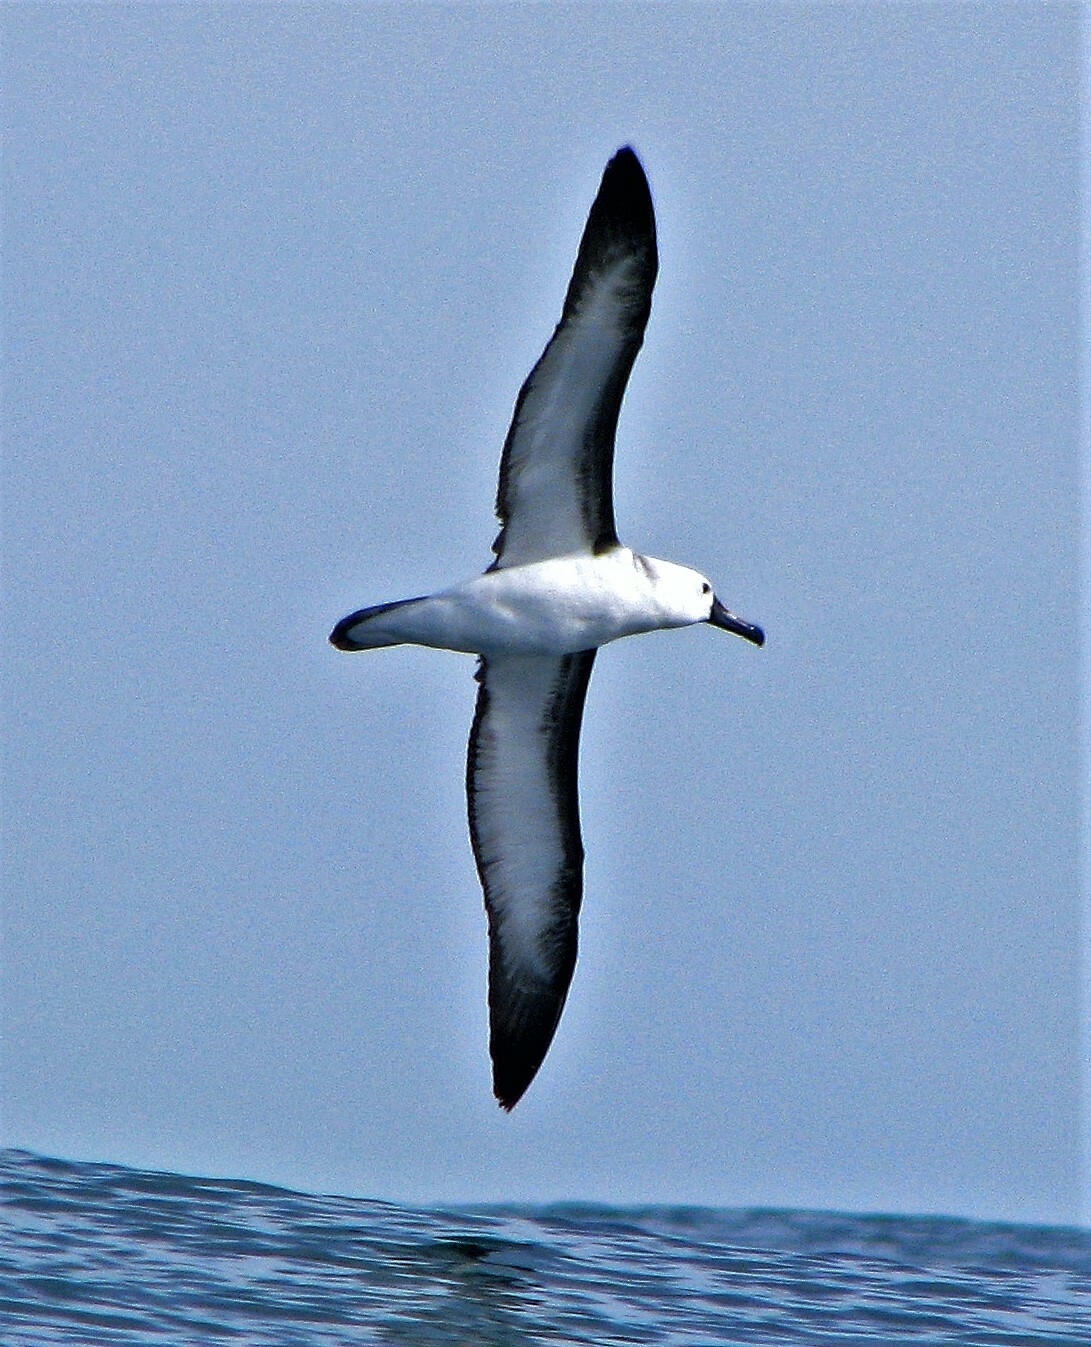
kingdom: Animalia
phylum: Chordata
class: Aves
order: Procellariiformes
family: Diomedeidae
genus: Thalassarche
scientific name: Thalassarche chlororhynchos
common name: Atlantic yellow-nosed albatross
